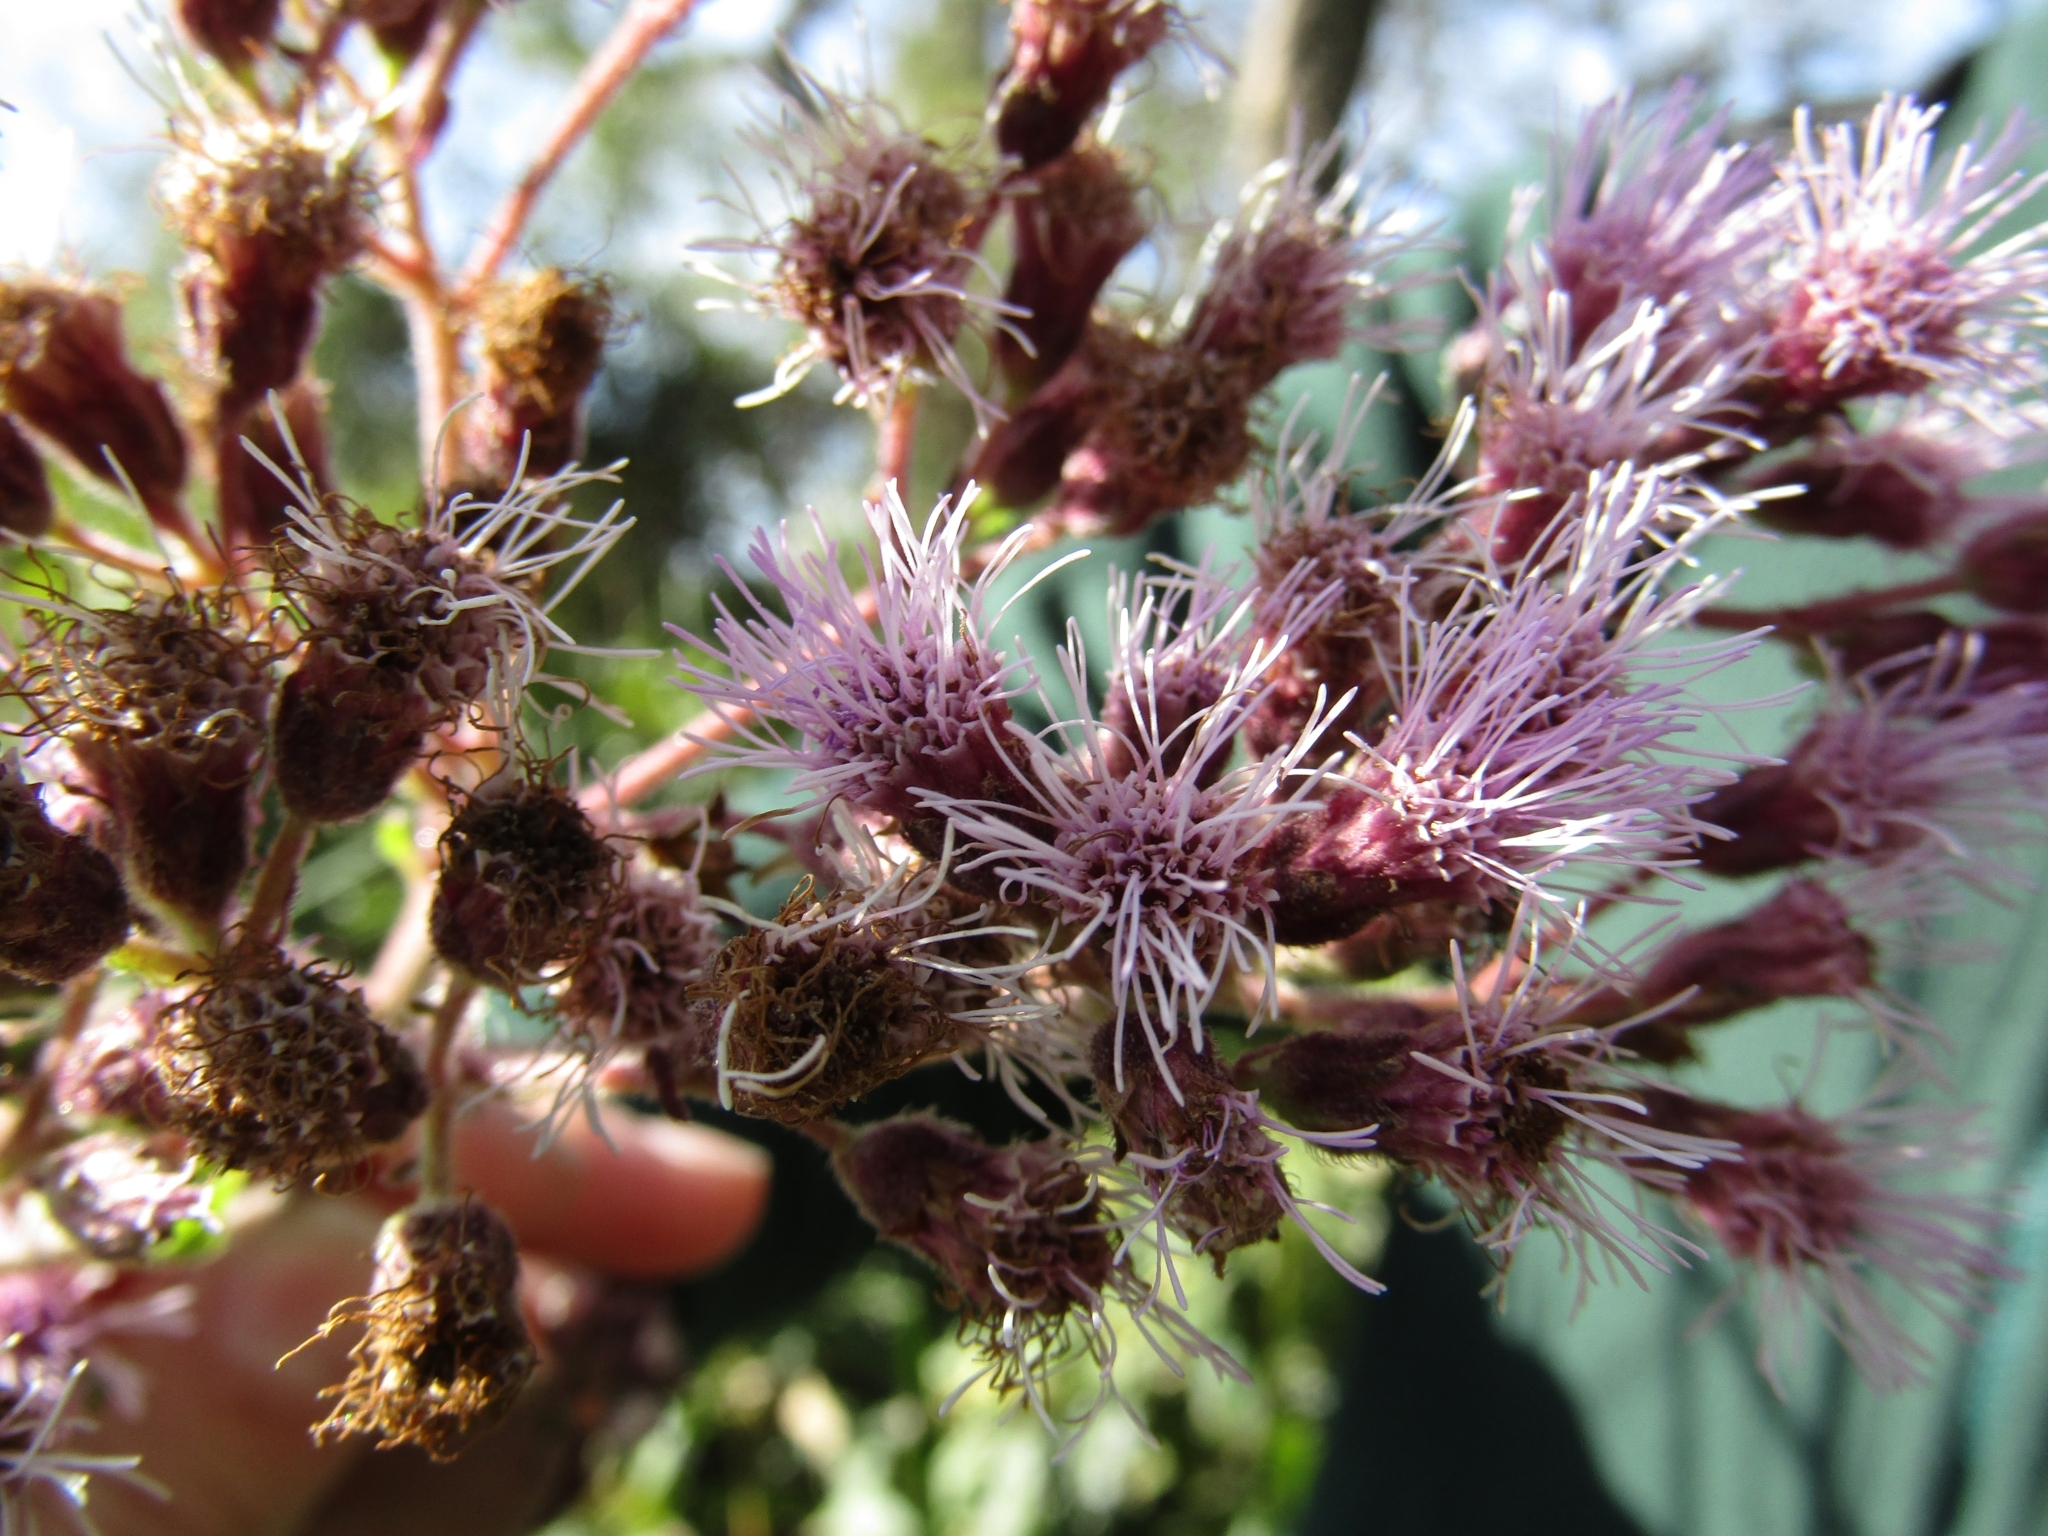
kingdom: Plantae
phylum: Tracheophyta
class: Magnoliopsida
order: Asterales
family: Asteraceae
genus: Campuloclinium
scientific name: Campuloclinium purpurascens
